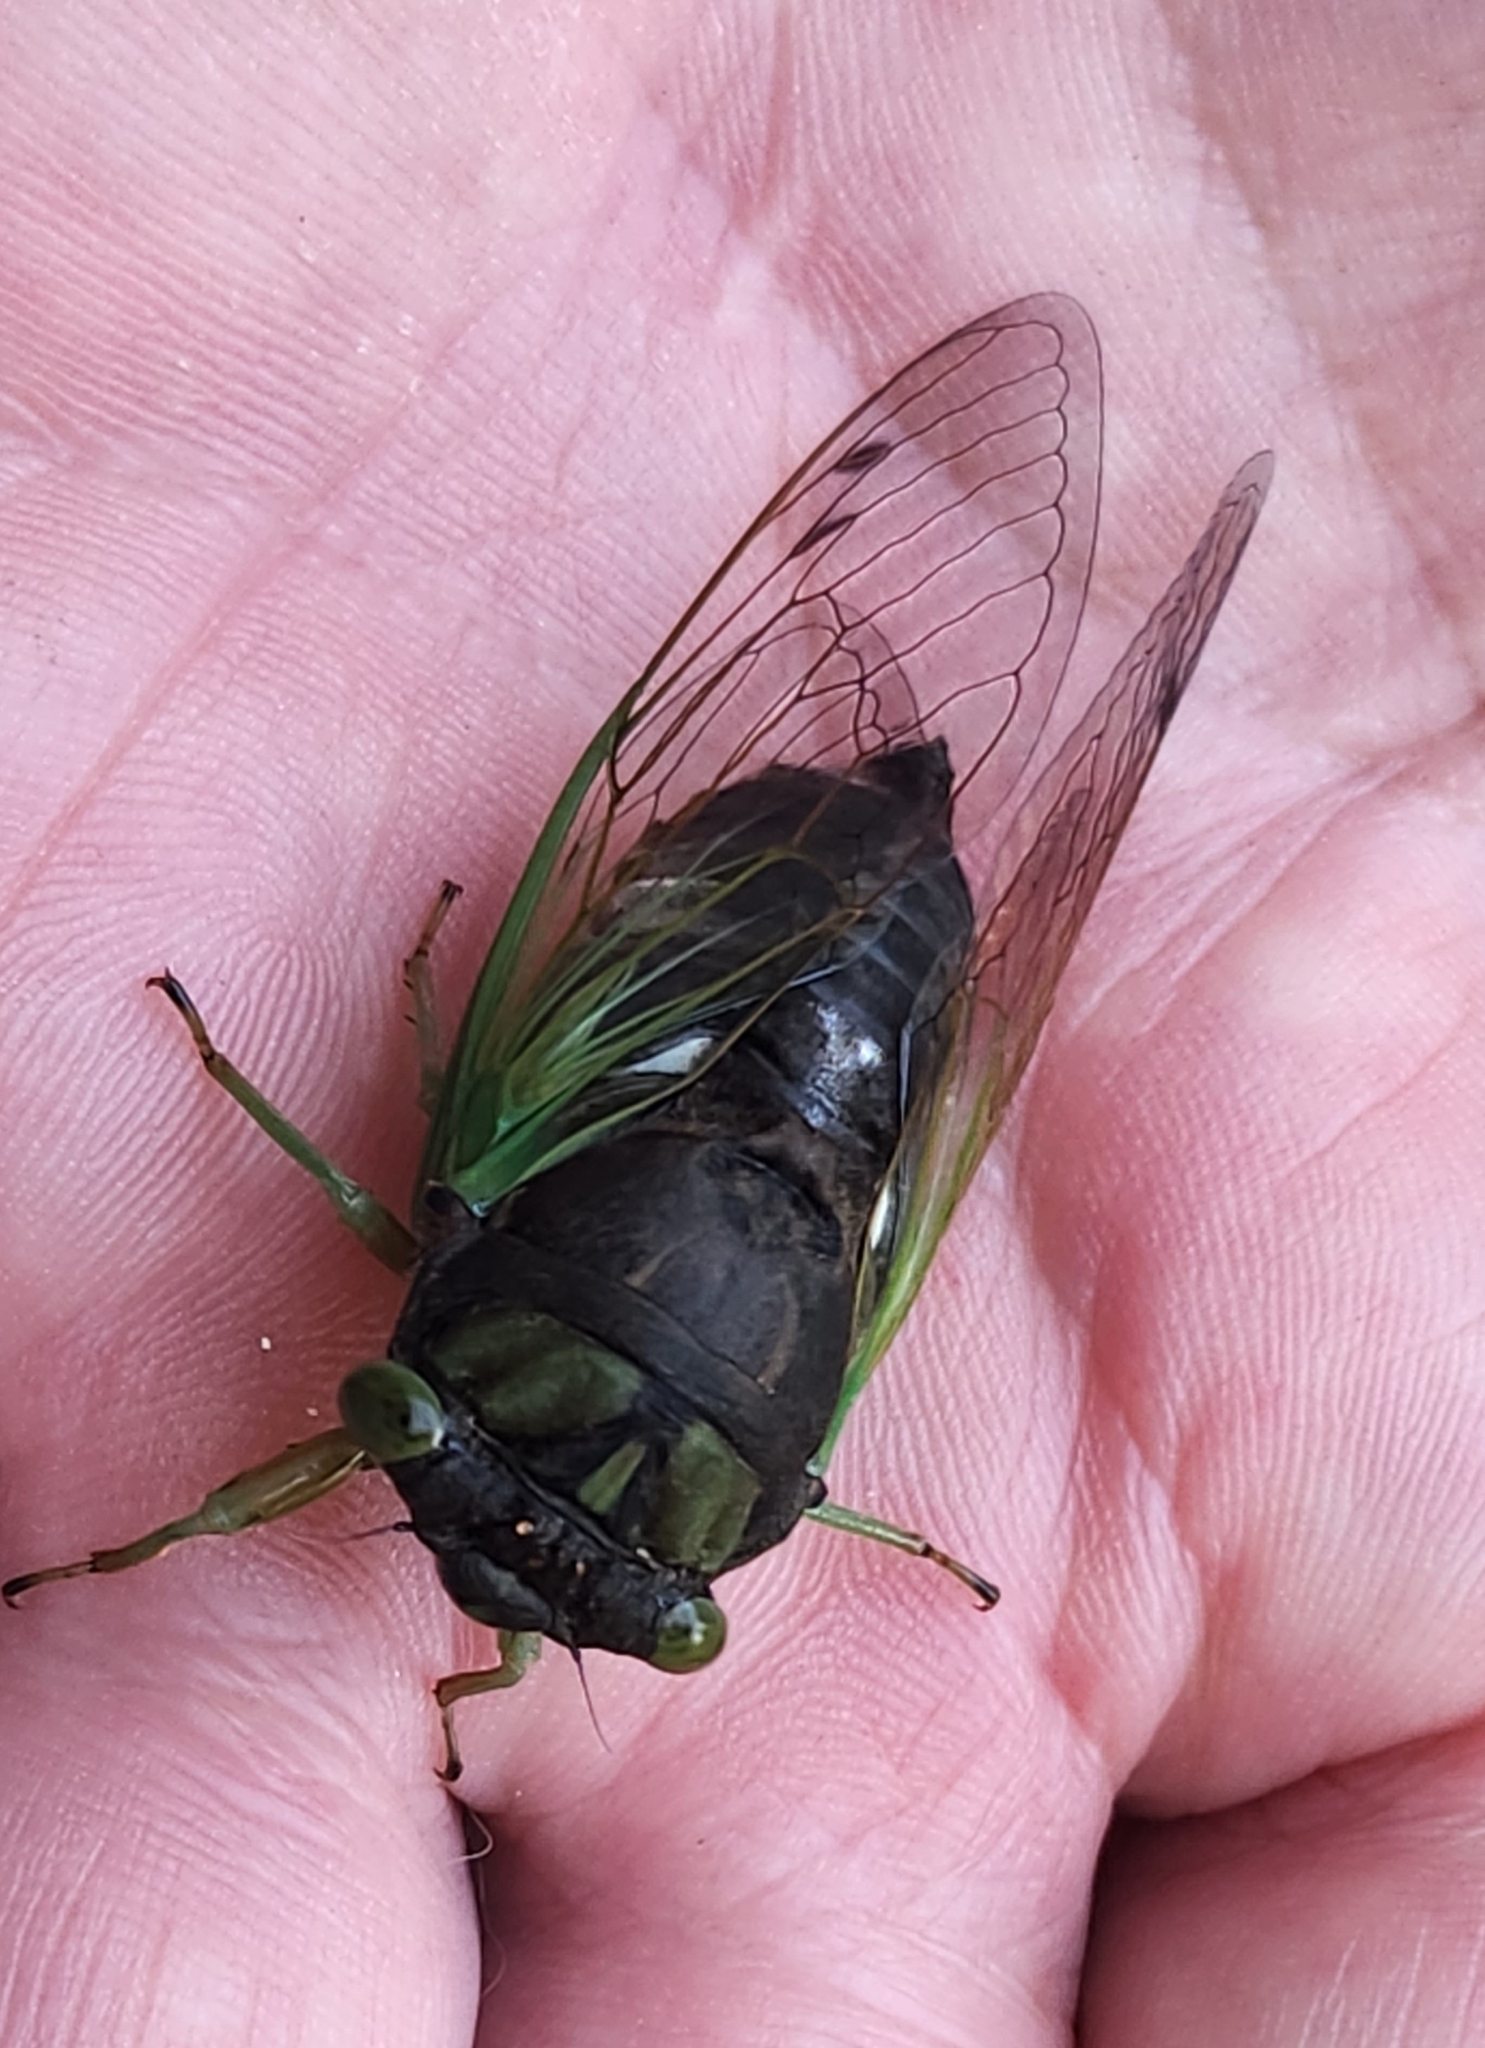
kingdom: Animalia
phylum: Arthropoda
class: Insecta
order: Hemiptera
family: Cicadidae
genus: Neotibicen
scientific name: Neotibicen tibicen
